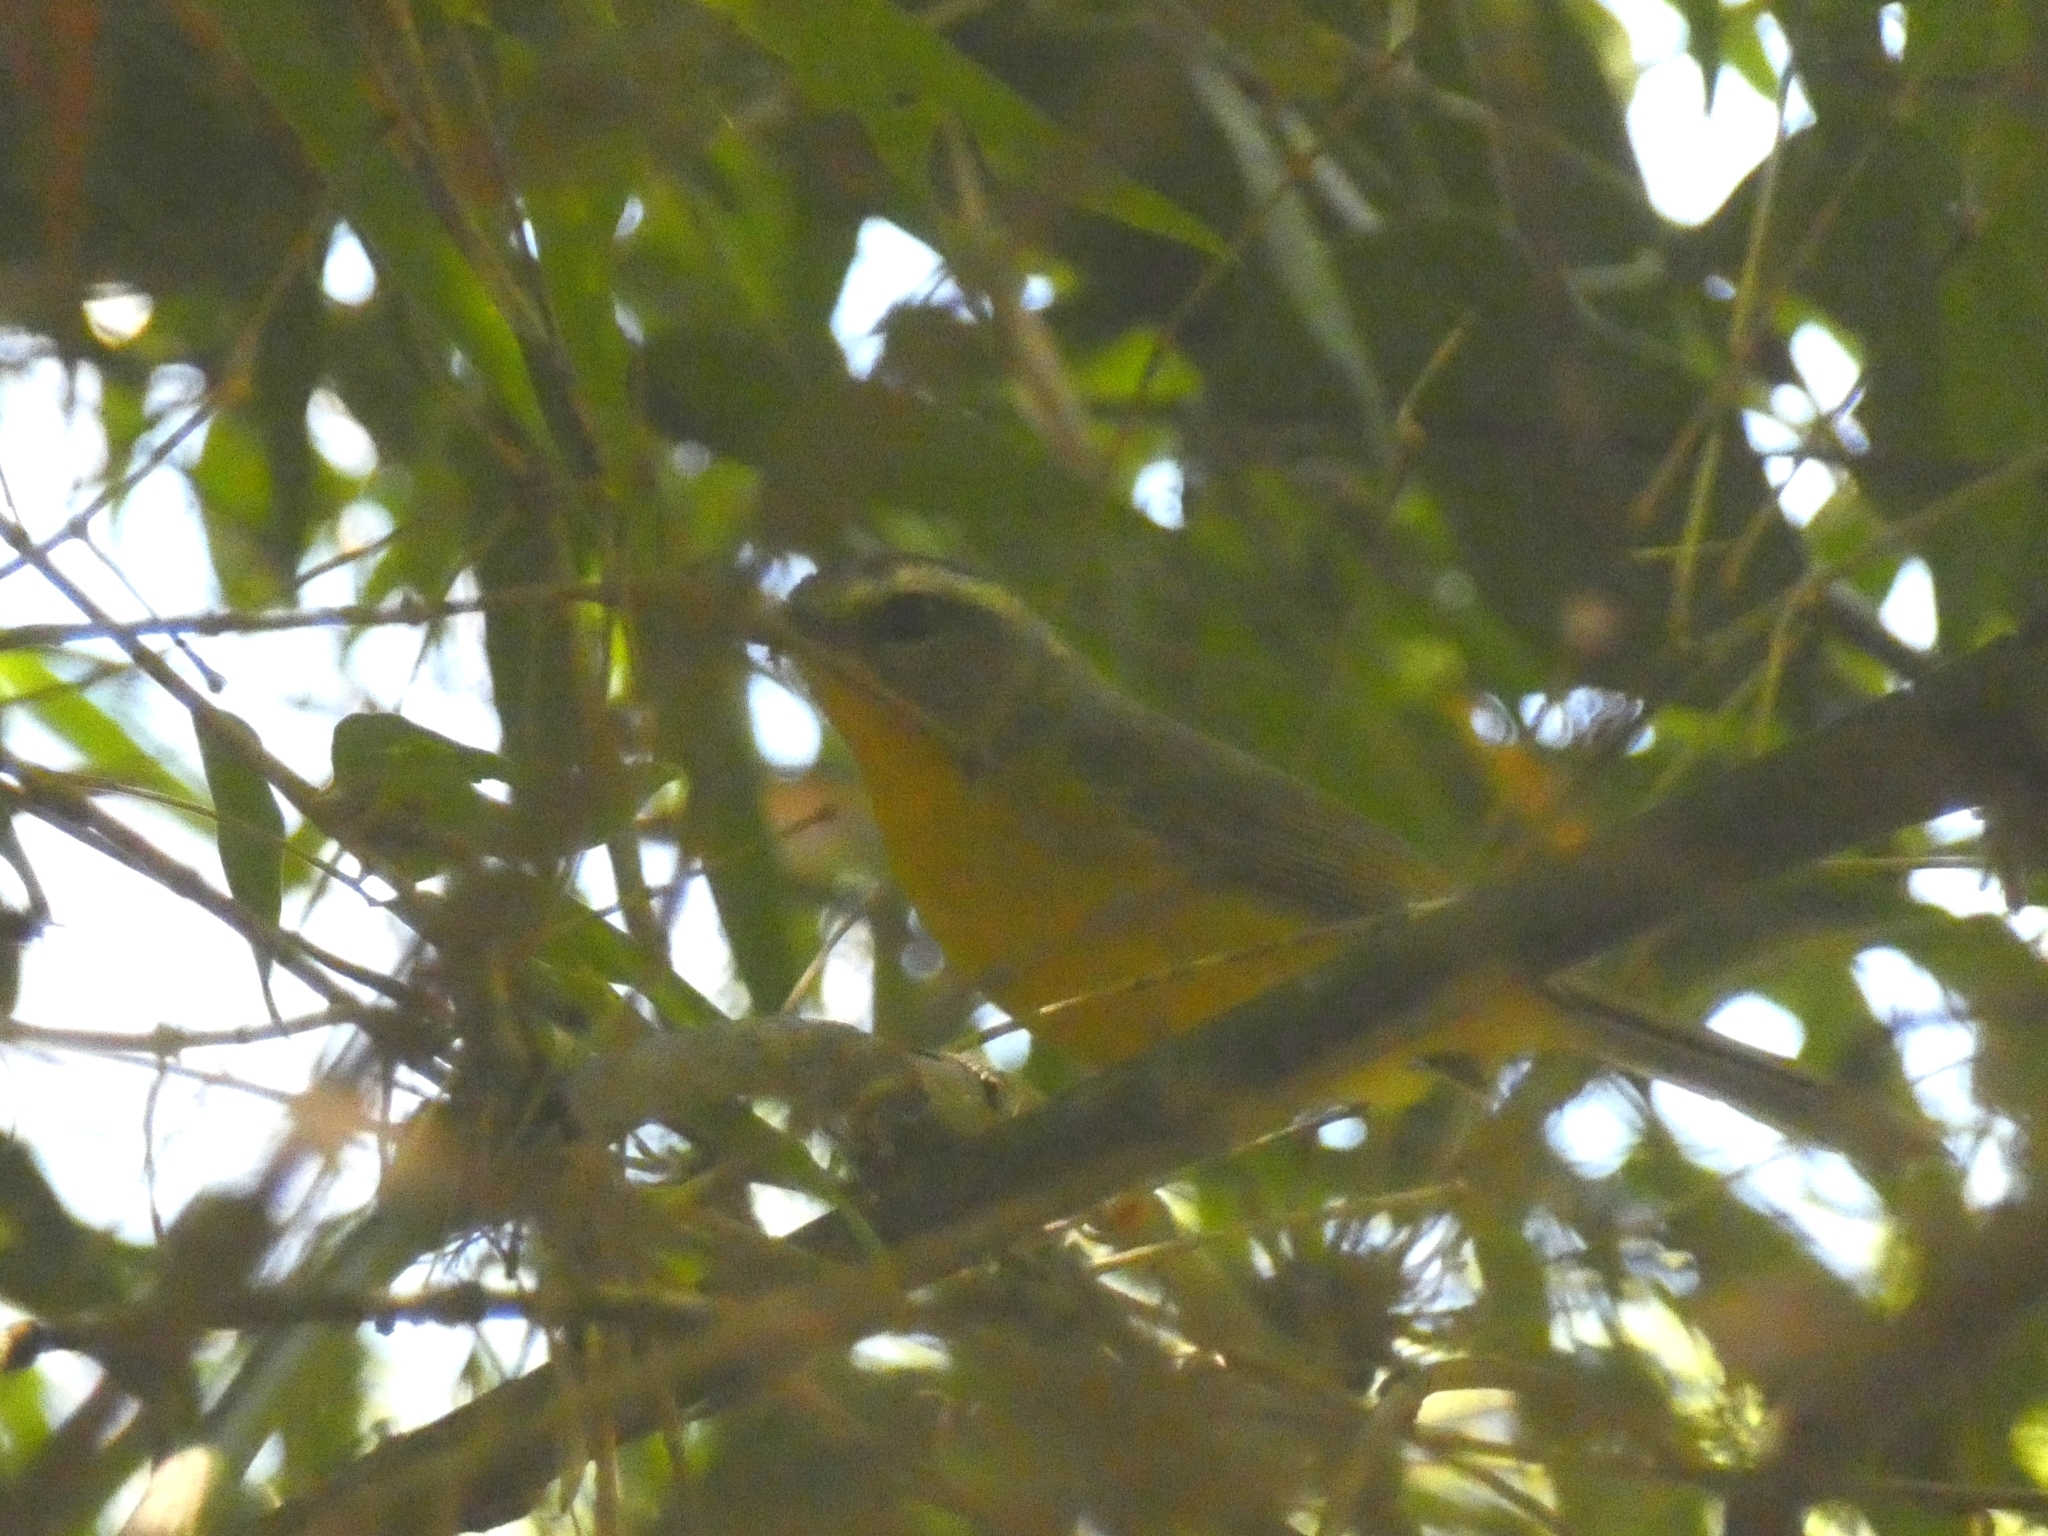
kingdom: Animalia
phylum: Chordata
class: Aves
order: Passeriformes
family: Parulidae
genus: Basileuterus
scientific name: Basileuterus culicivorus
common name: Golden-crowned warbler
